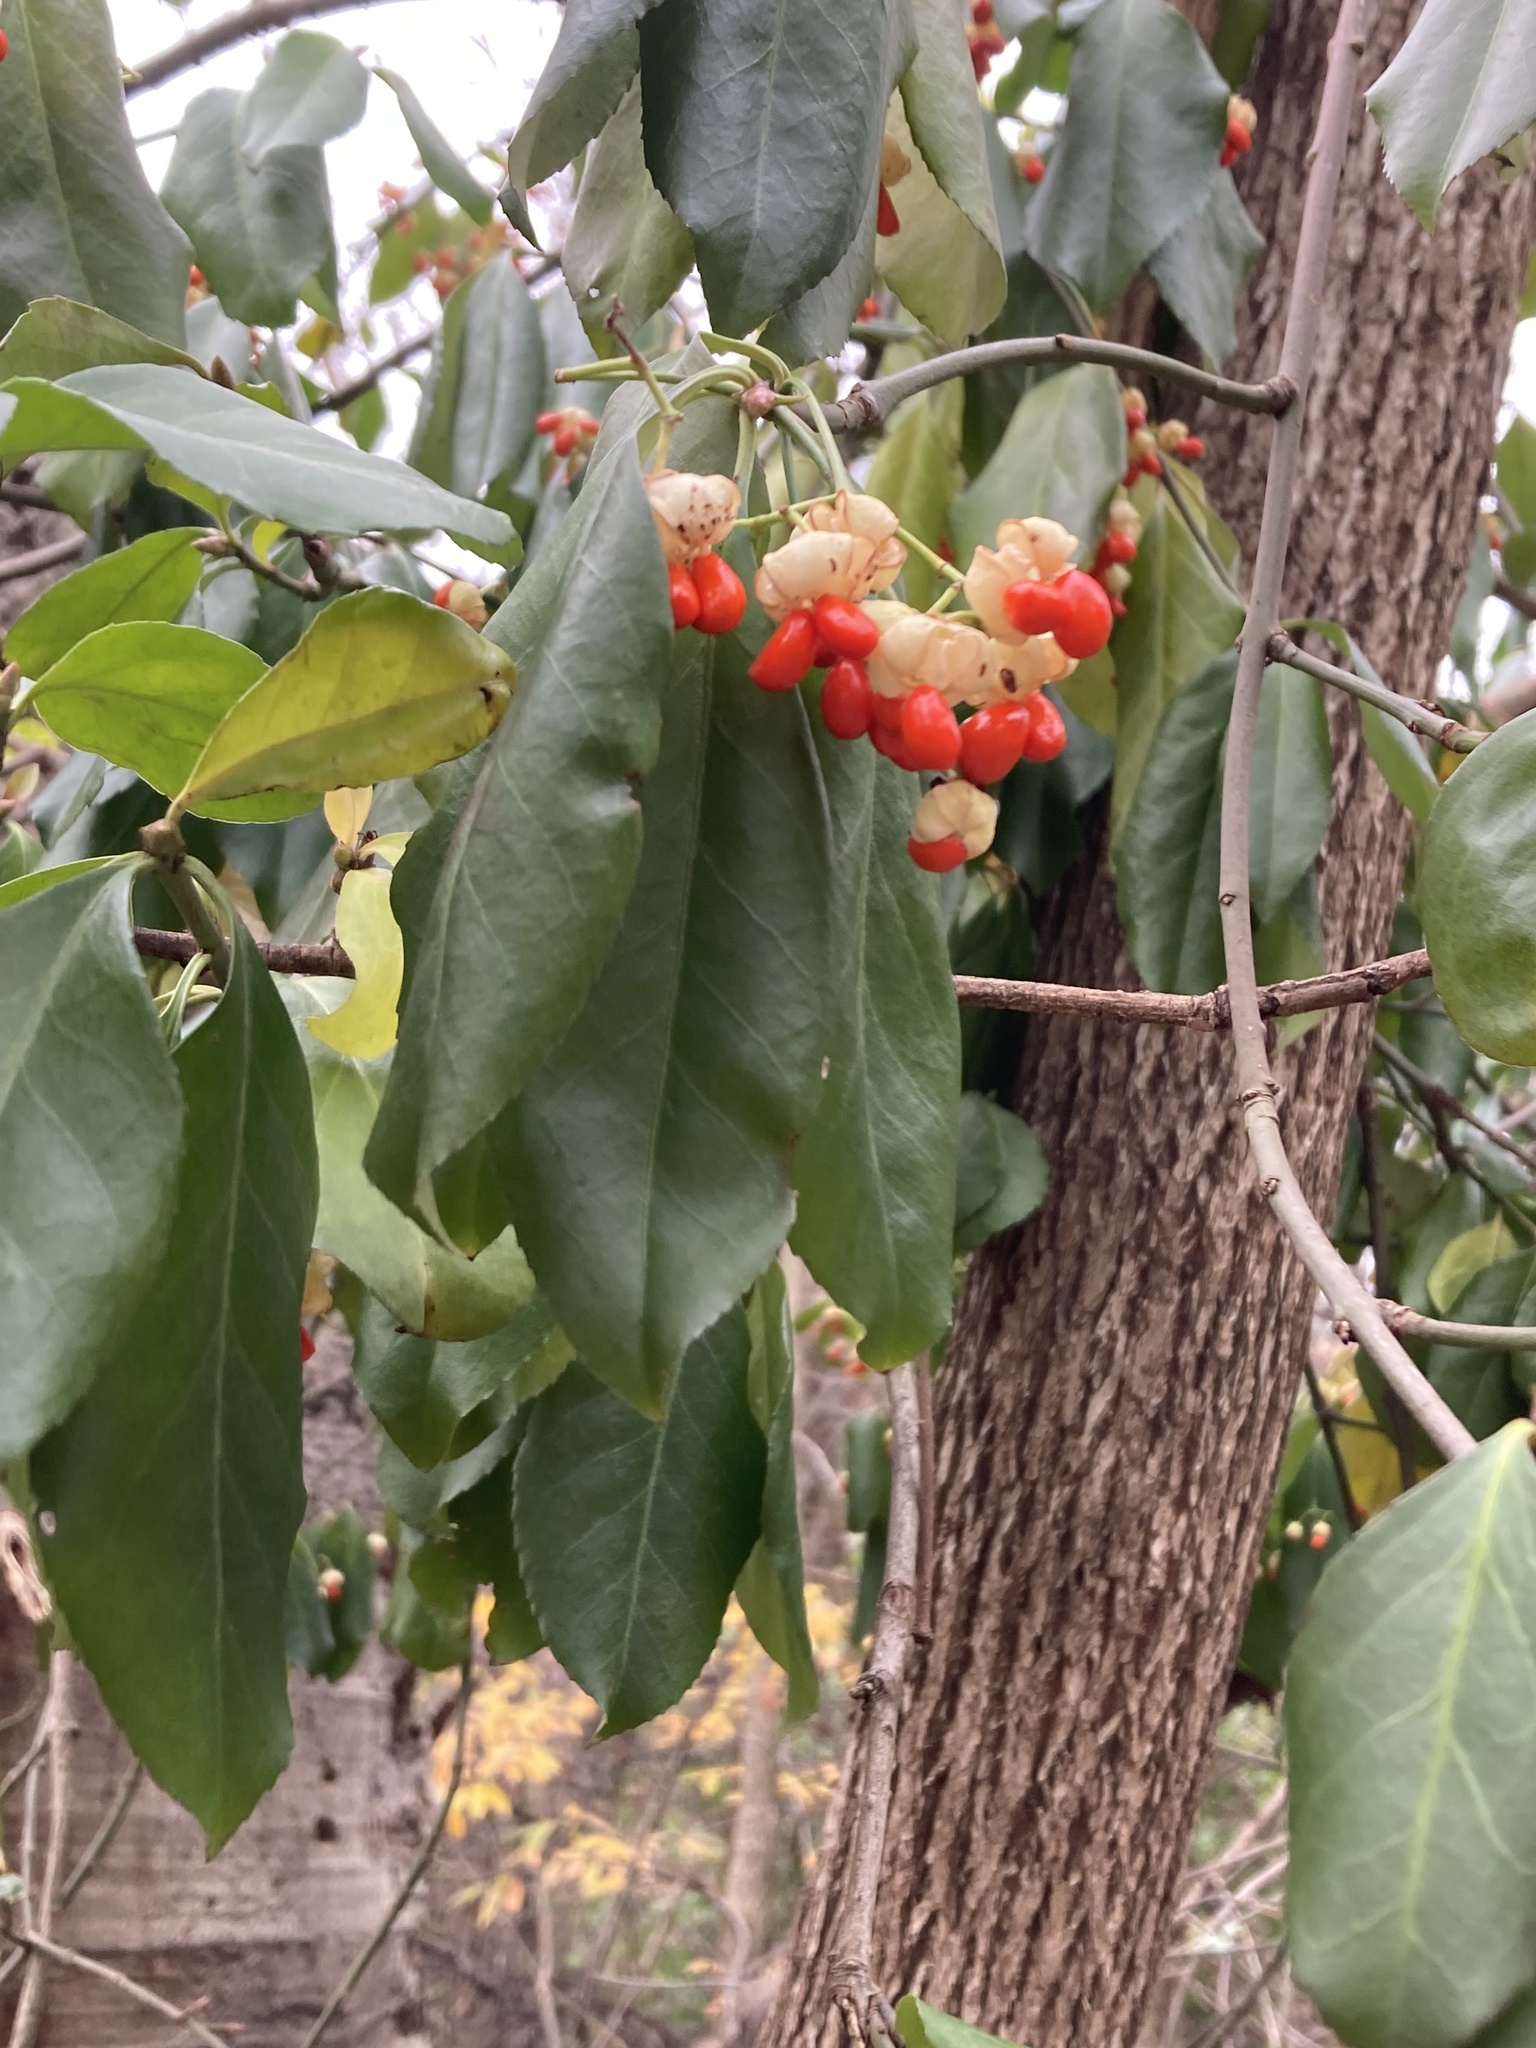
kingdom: Plantae
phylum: Tracheophyta
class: Magnoliopsida
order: Celastrales
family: Celastraceae
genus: Euonymus
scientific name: Euonymus fortunei
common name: Climbing euonymus
